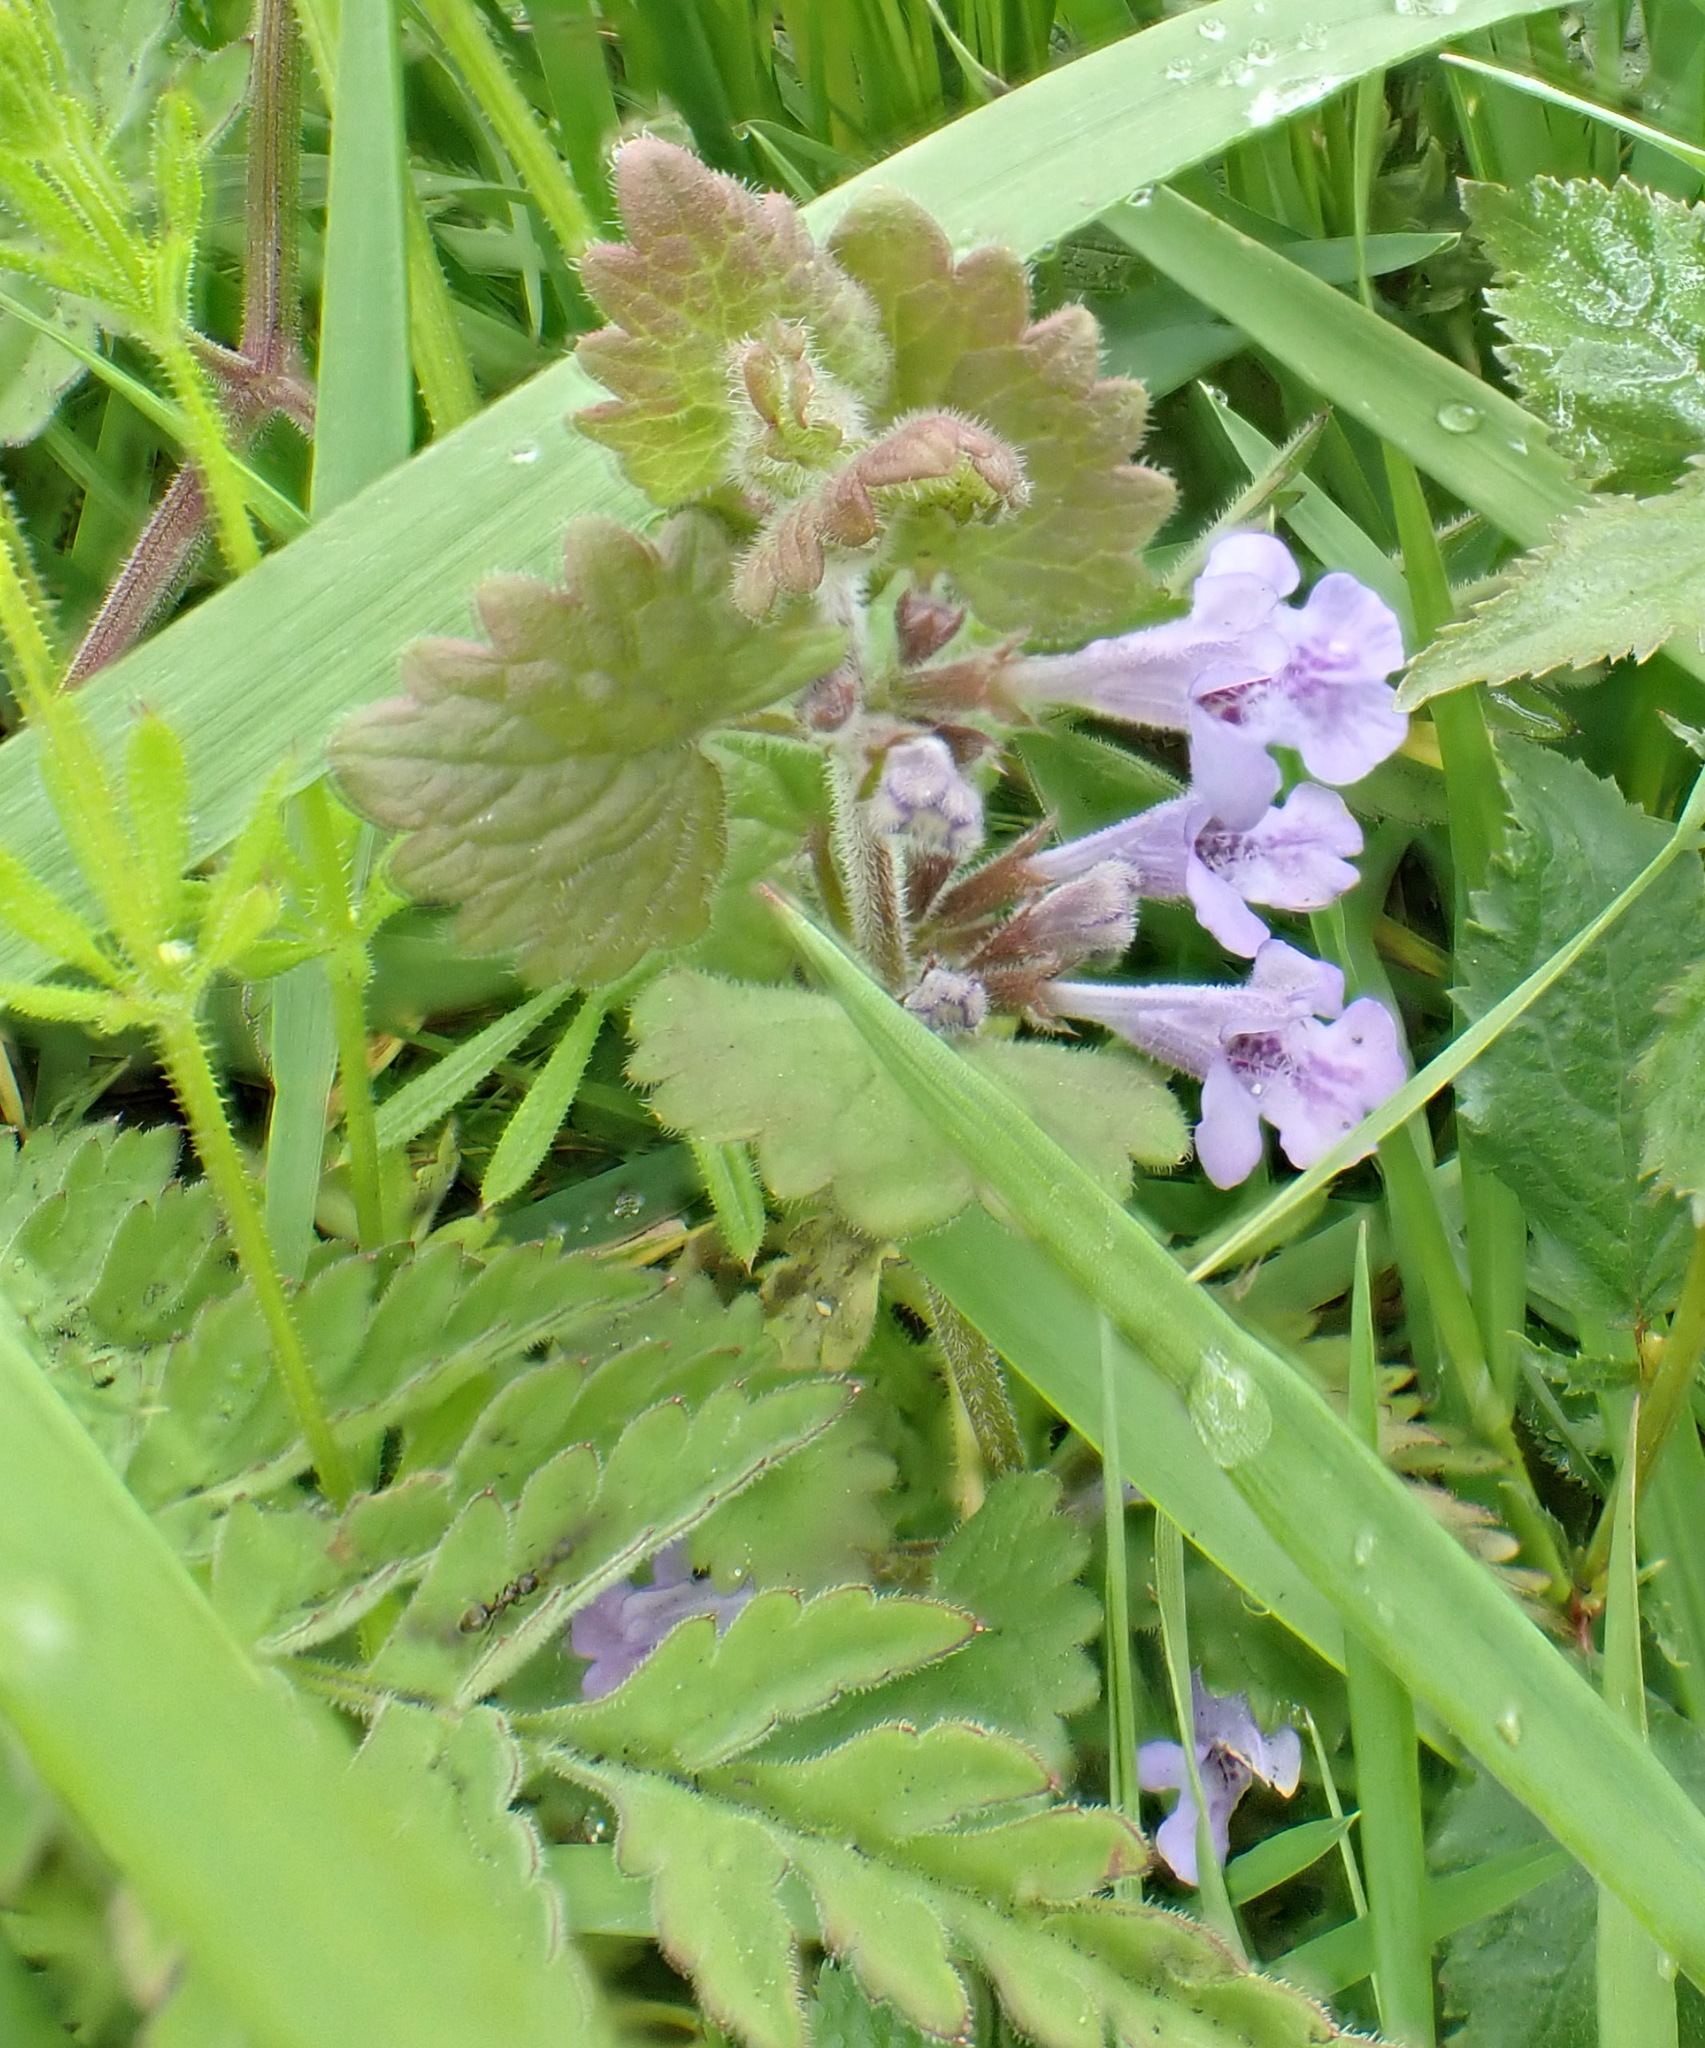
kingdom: Plantae
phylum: Tracheophyta
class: Magnoliopsida
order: Lamiales
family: Lamiaceae
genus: Glechoma
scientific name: Glechoma hederacea
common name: Ground ivy
